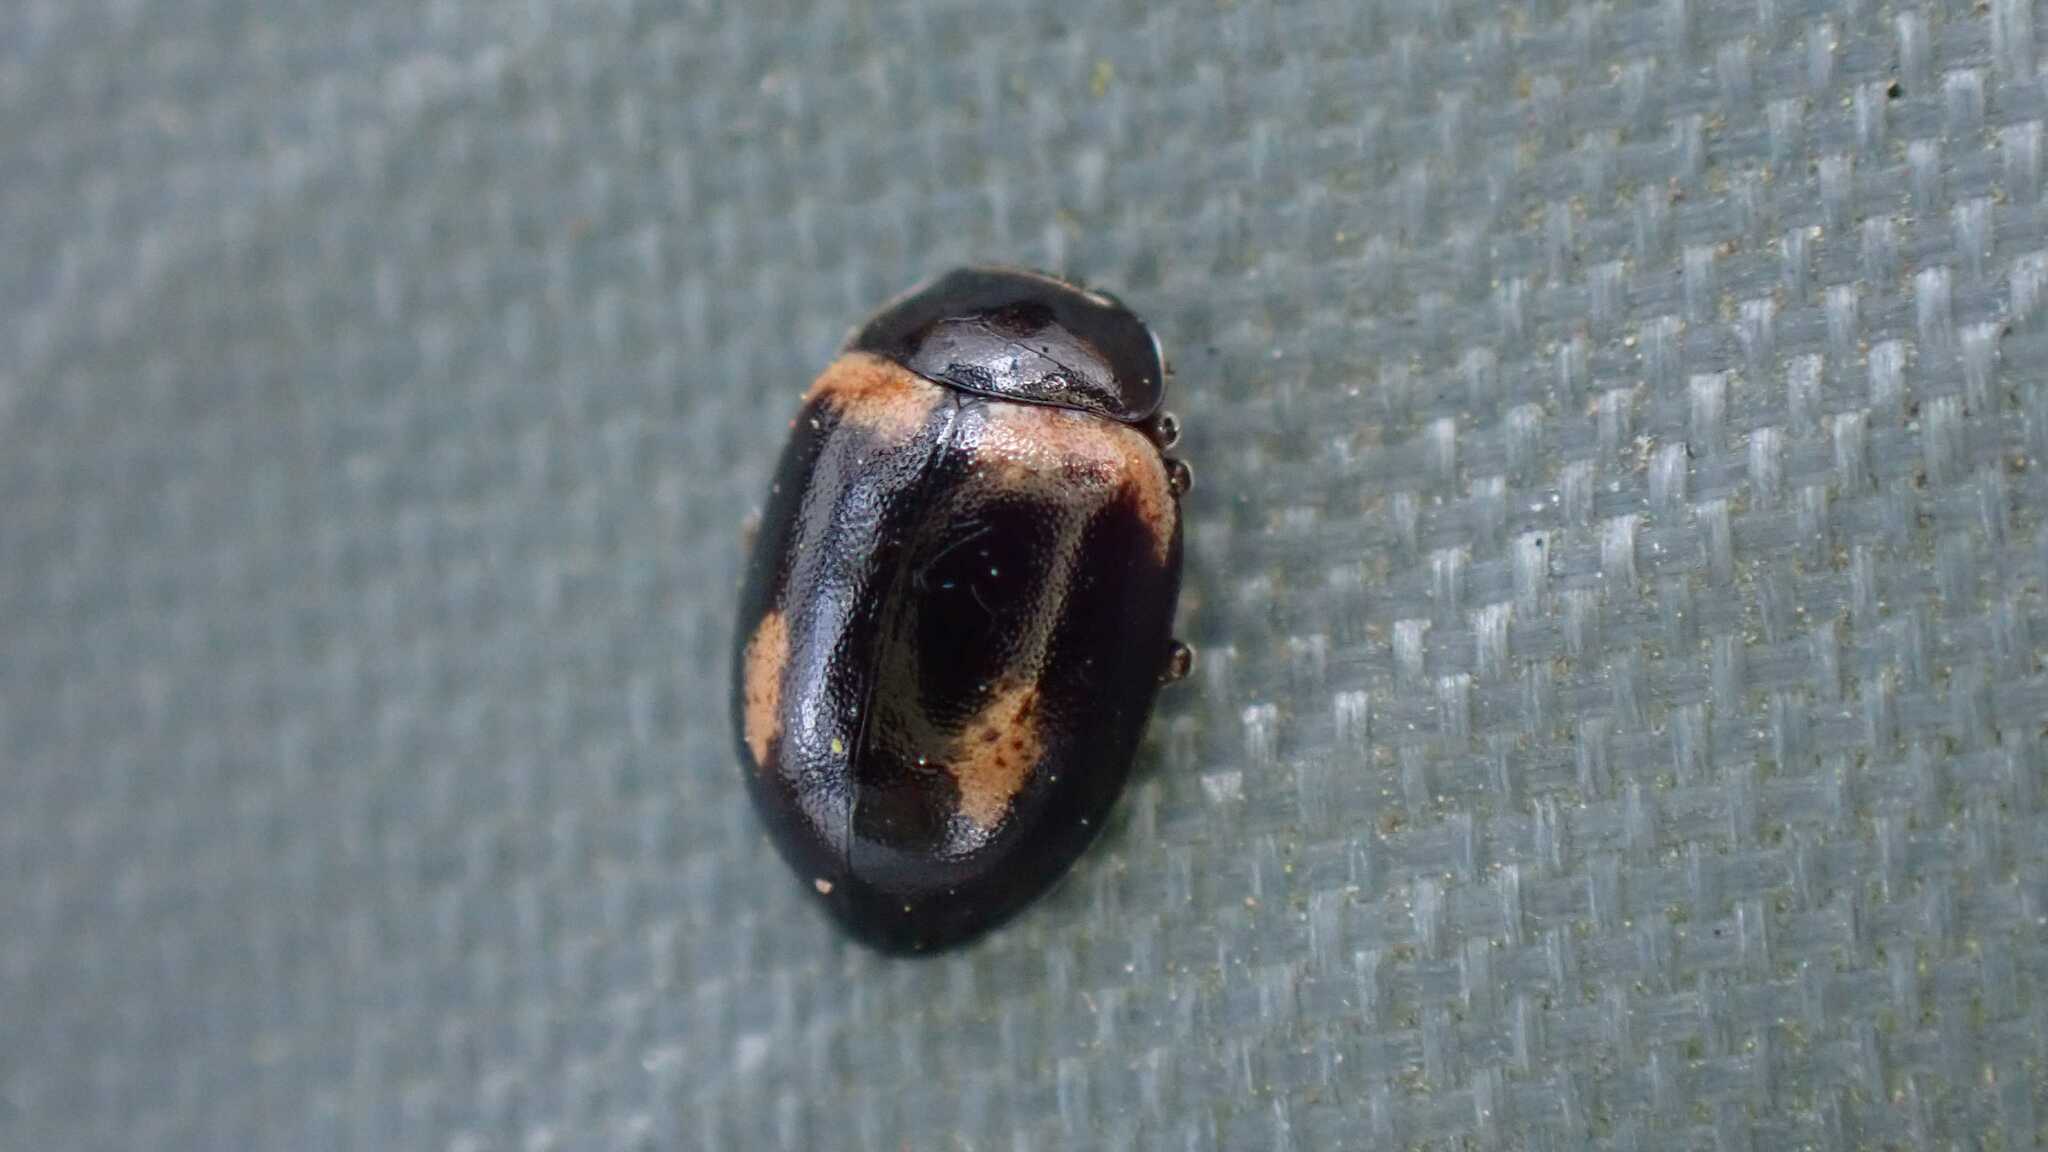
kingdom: Animalia
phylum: Arthropoda
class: Insecta
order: Coleoptera
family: Coccinellidae
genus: Aphidecta
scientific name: Aphidecta obliterata
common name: Larch ladybird
